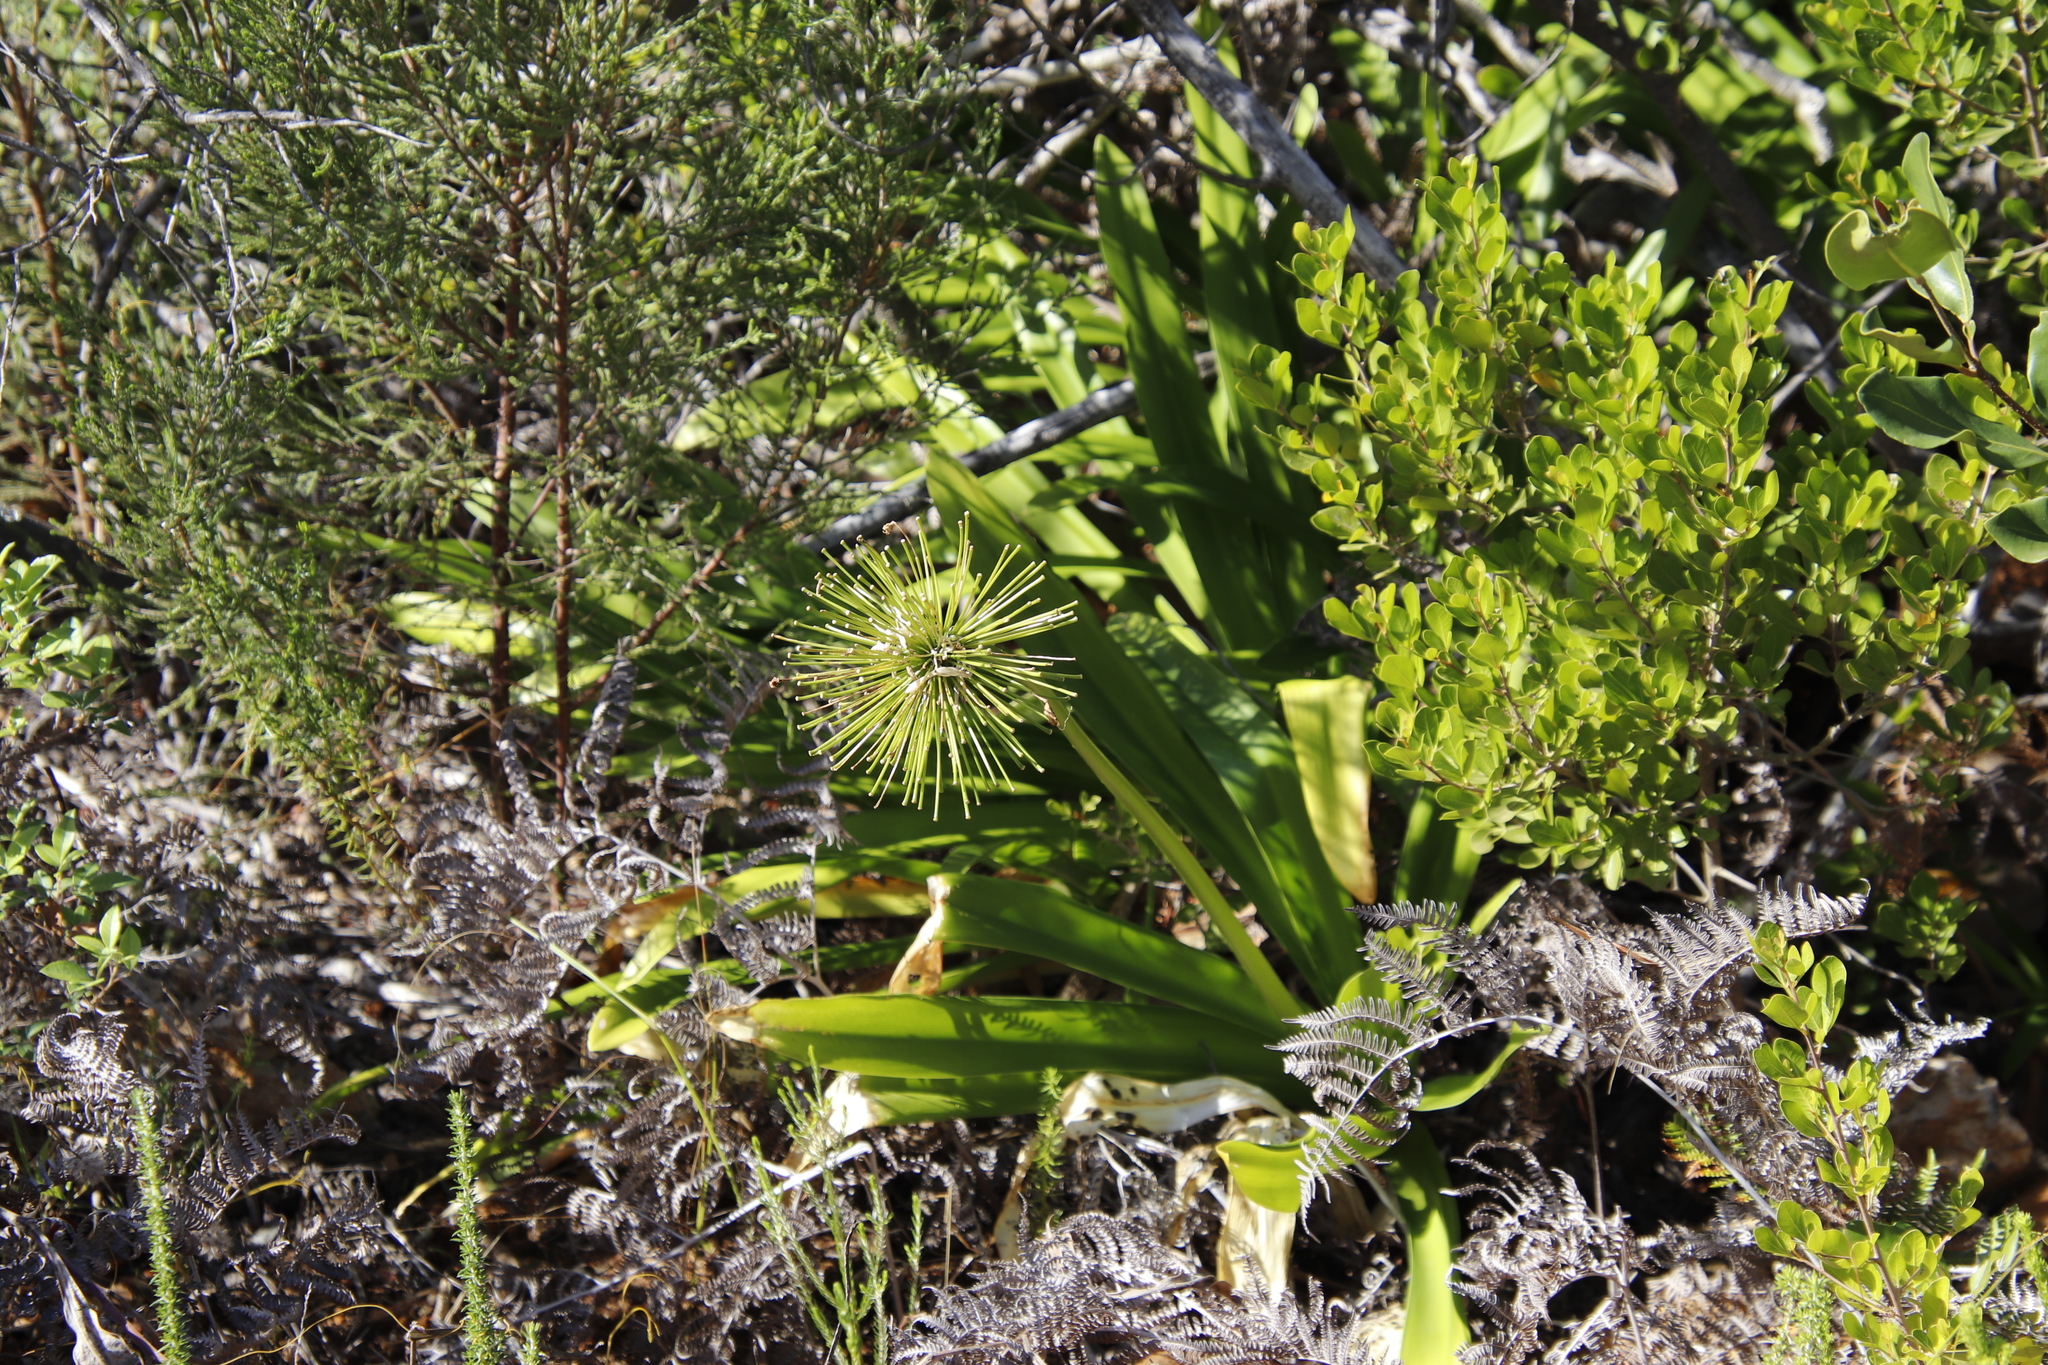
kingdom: Plantae
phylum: Tracheophyta
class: Liliopsida
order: Asparagales
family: Amaryllidaceae
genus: Agapanthus
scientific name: Agapanthus praecox
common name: African-lily
